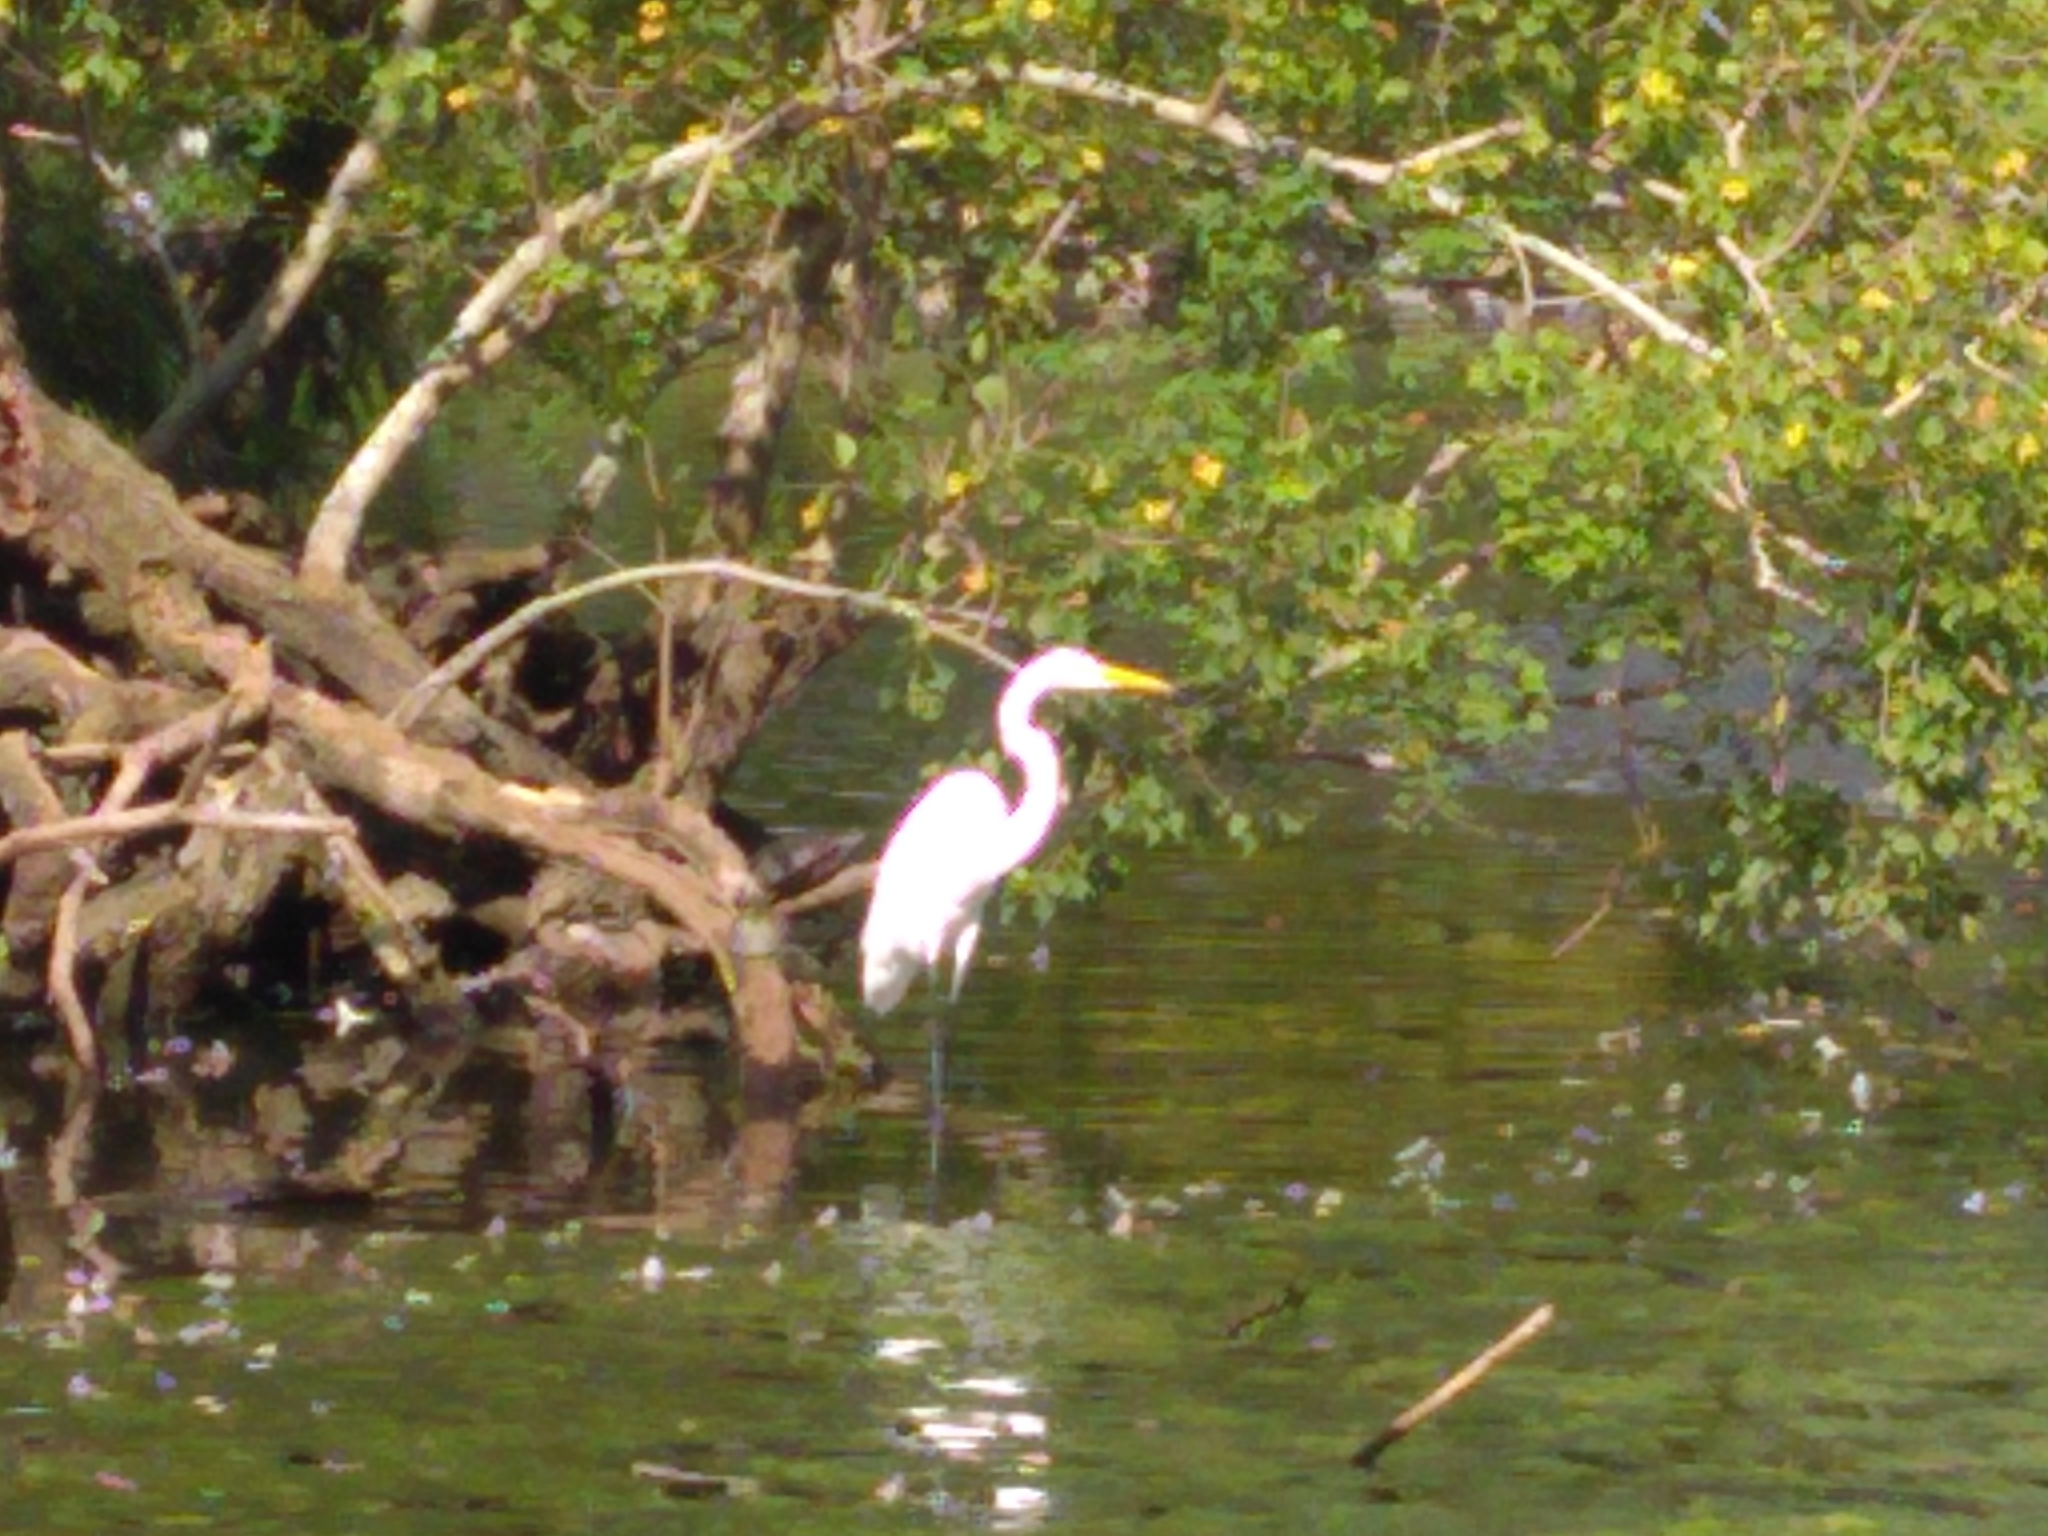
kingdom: Animalia
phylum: Chordata
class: Aves
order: Pelecaniformes
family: Ardeidae
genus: Ardea
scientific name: Ardea alba
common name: Great egret
